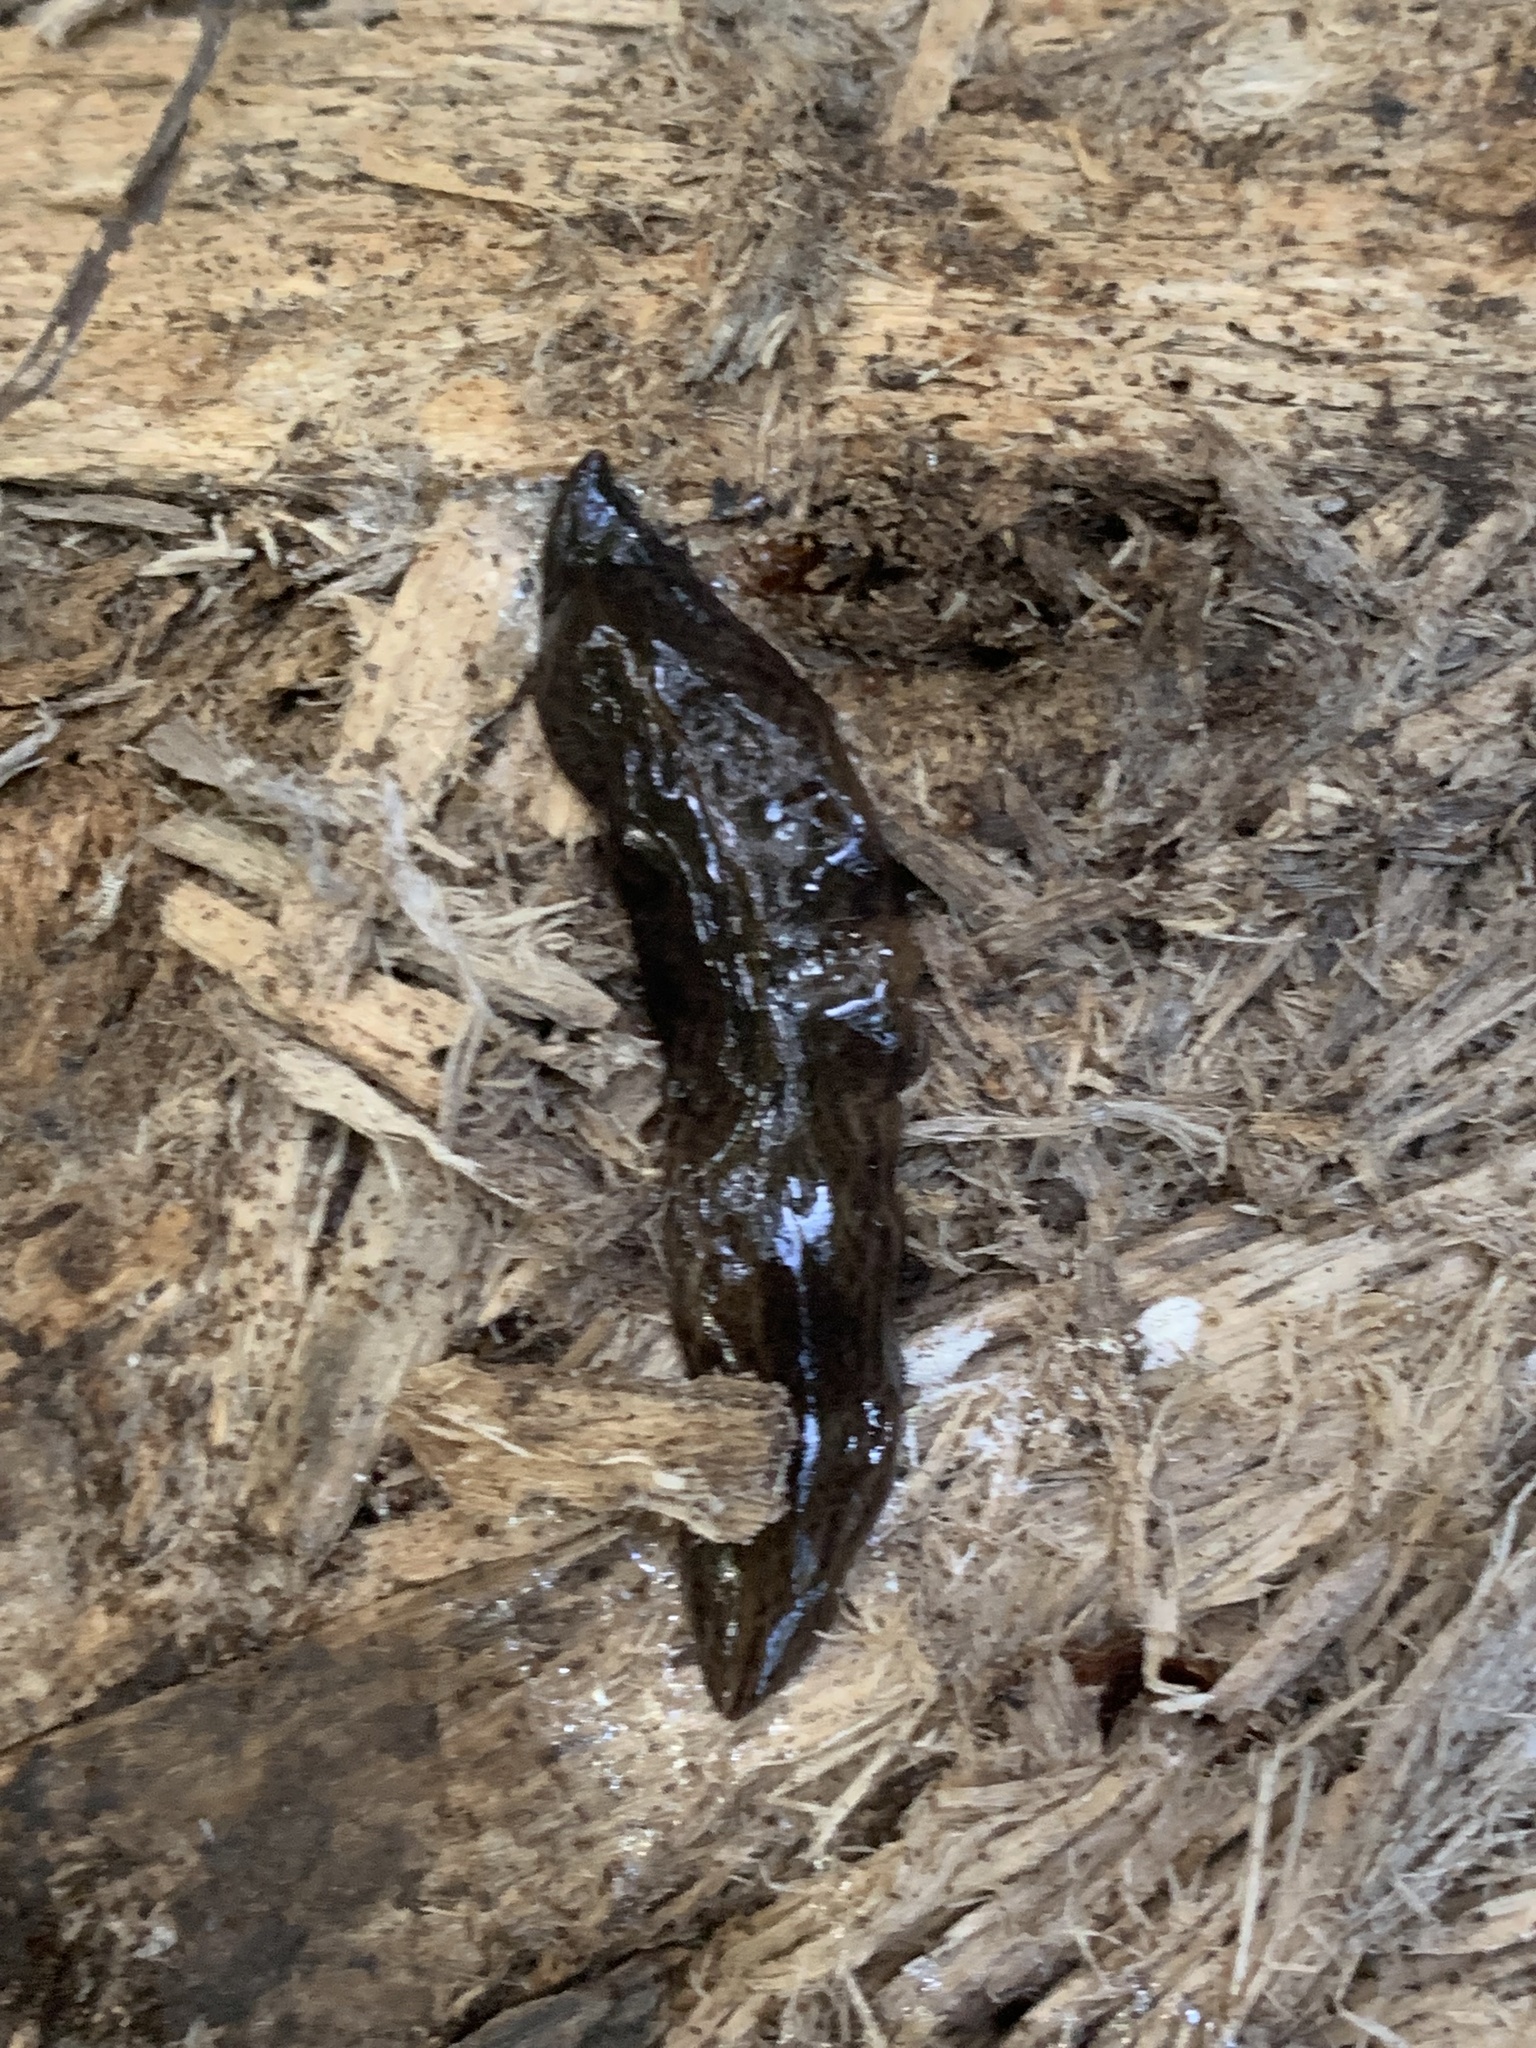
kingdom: Animalia
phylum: Platyhelminthes
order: Tricladida
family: Geoplanidae
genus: Obama
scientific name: Obama nungara
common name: Obama flatworm
